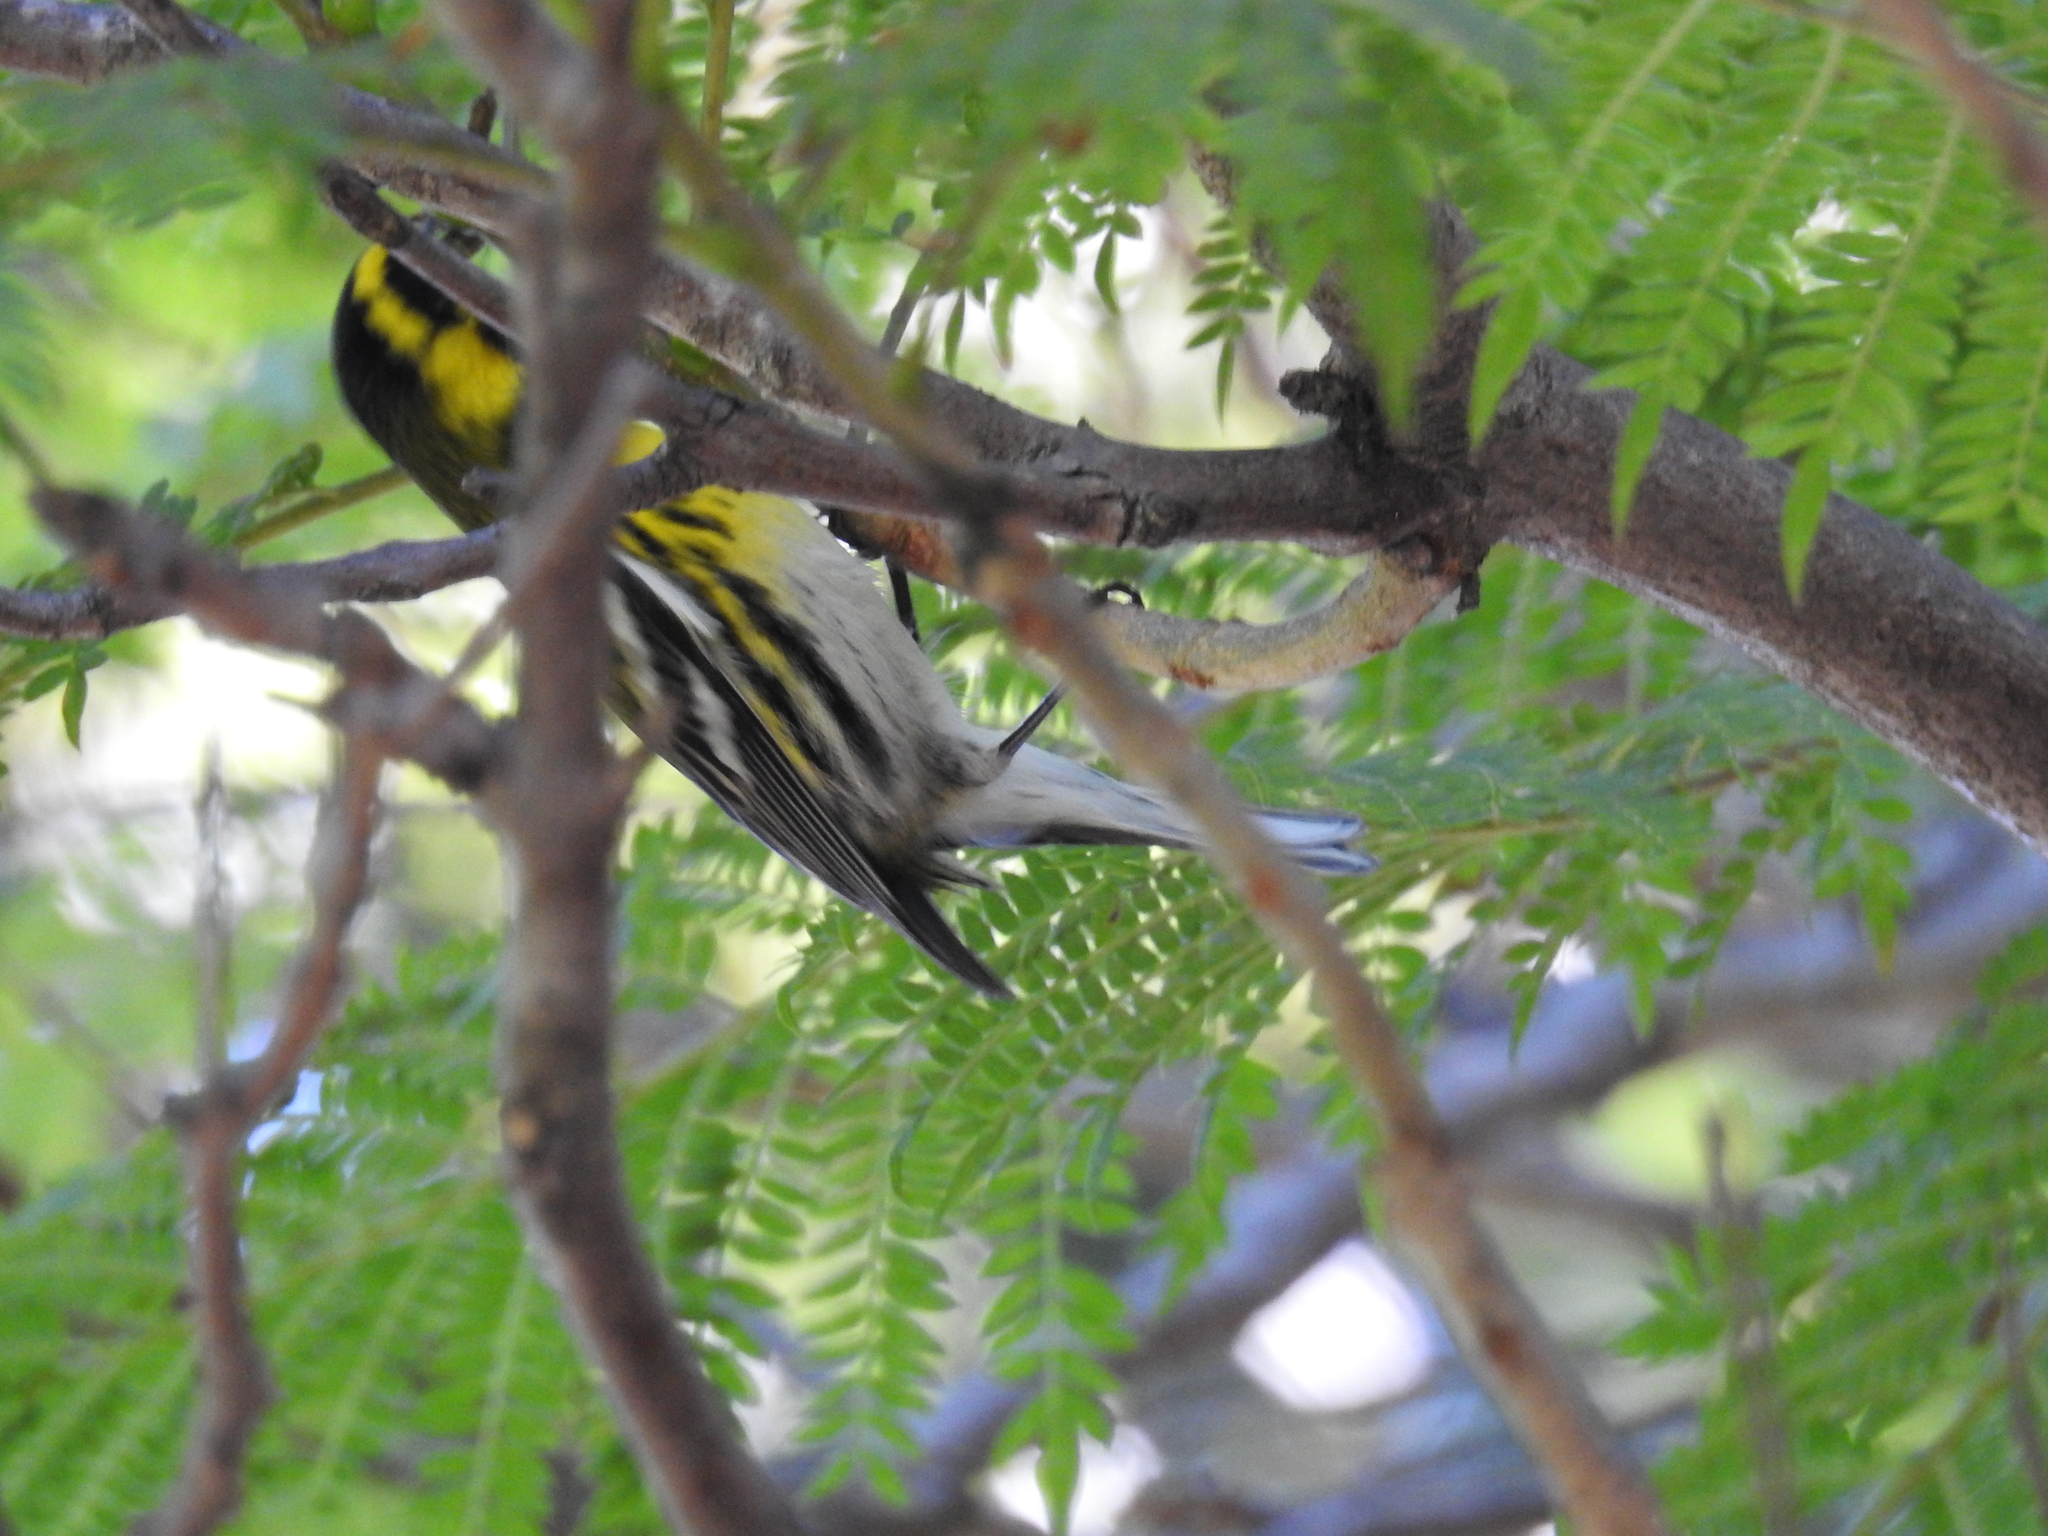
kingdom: Animalia
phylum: Chordata
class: Aves
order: Passeriformes
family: Parulidae
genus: Setophaga
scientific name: Setophaga townsendi
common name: Townsend's warbler
